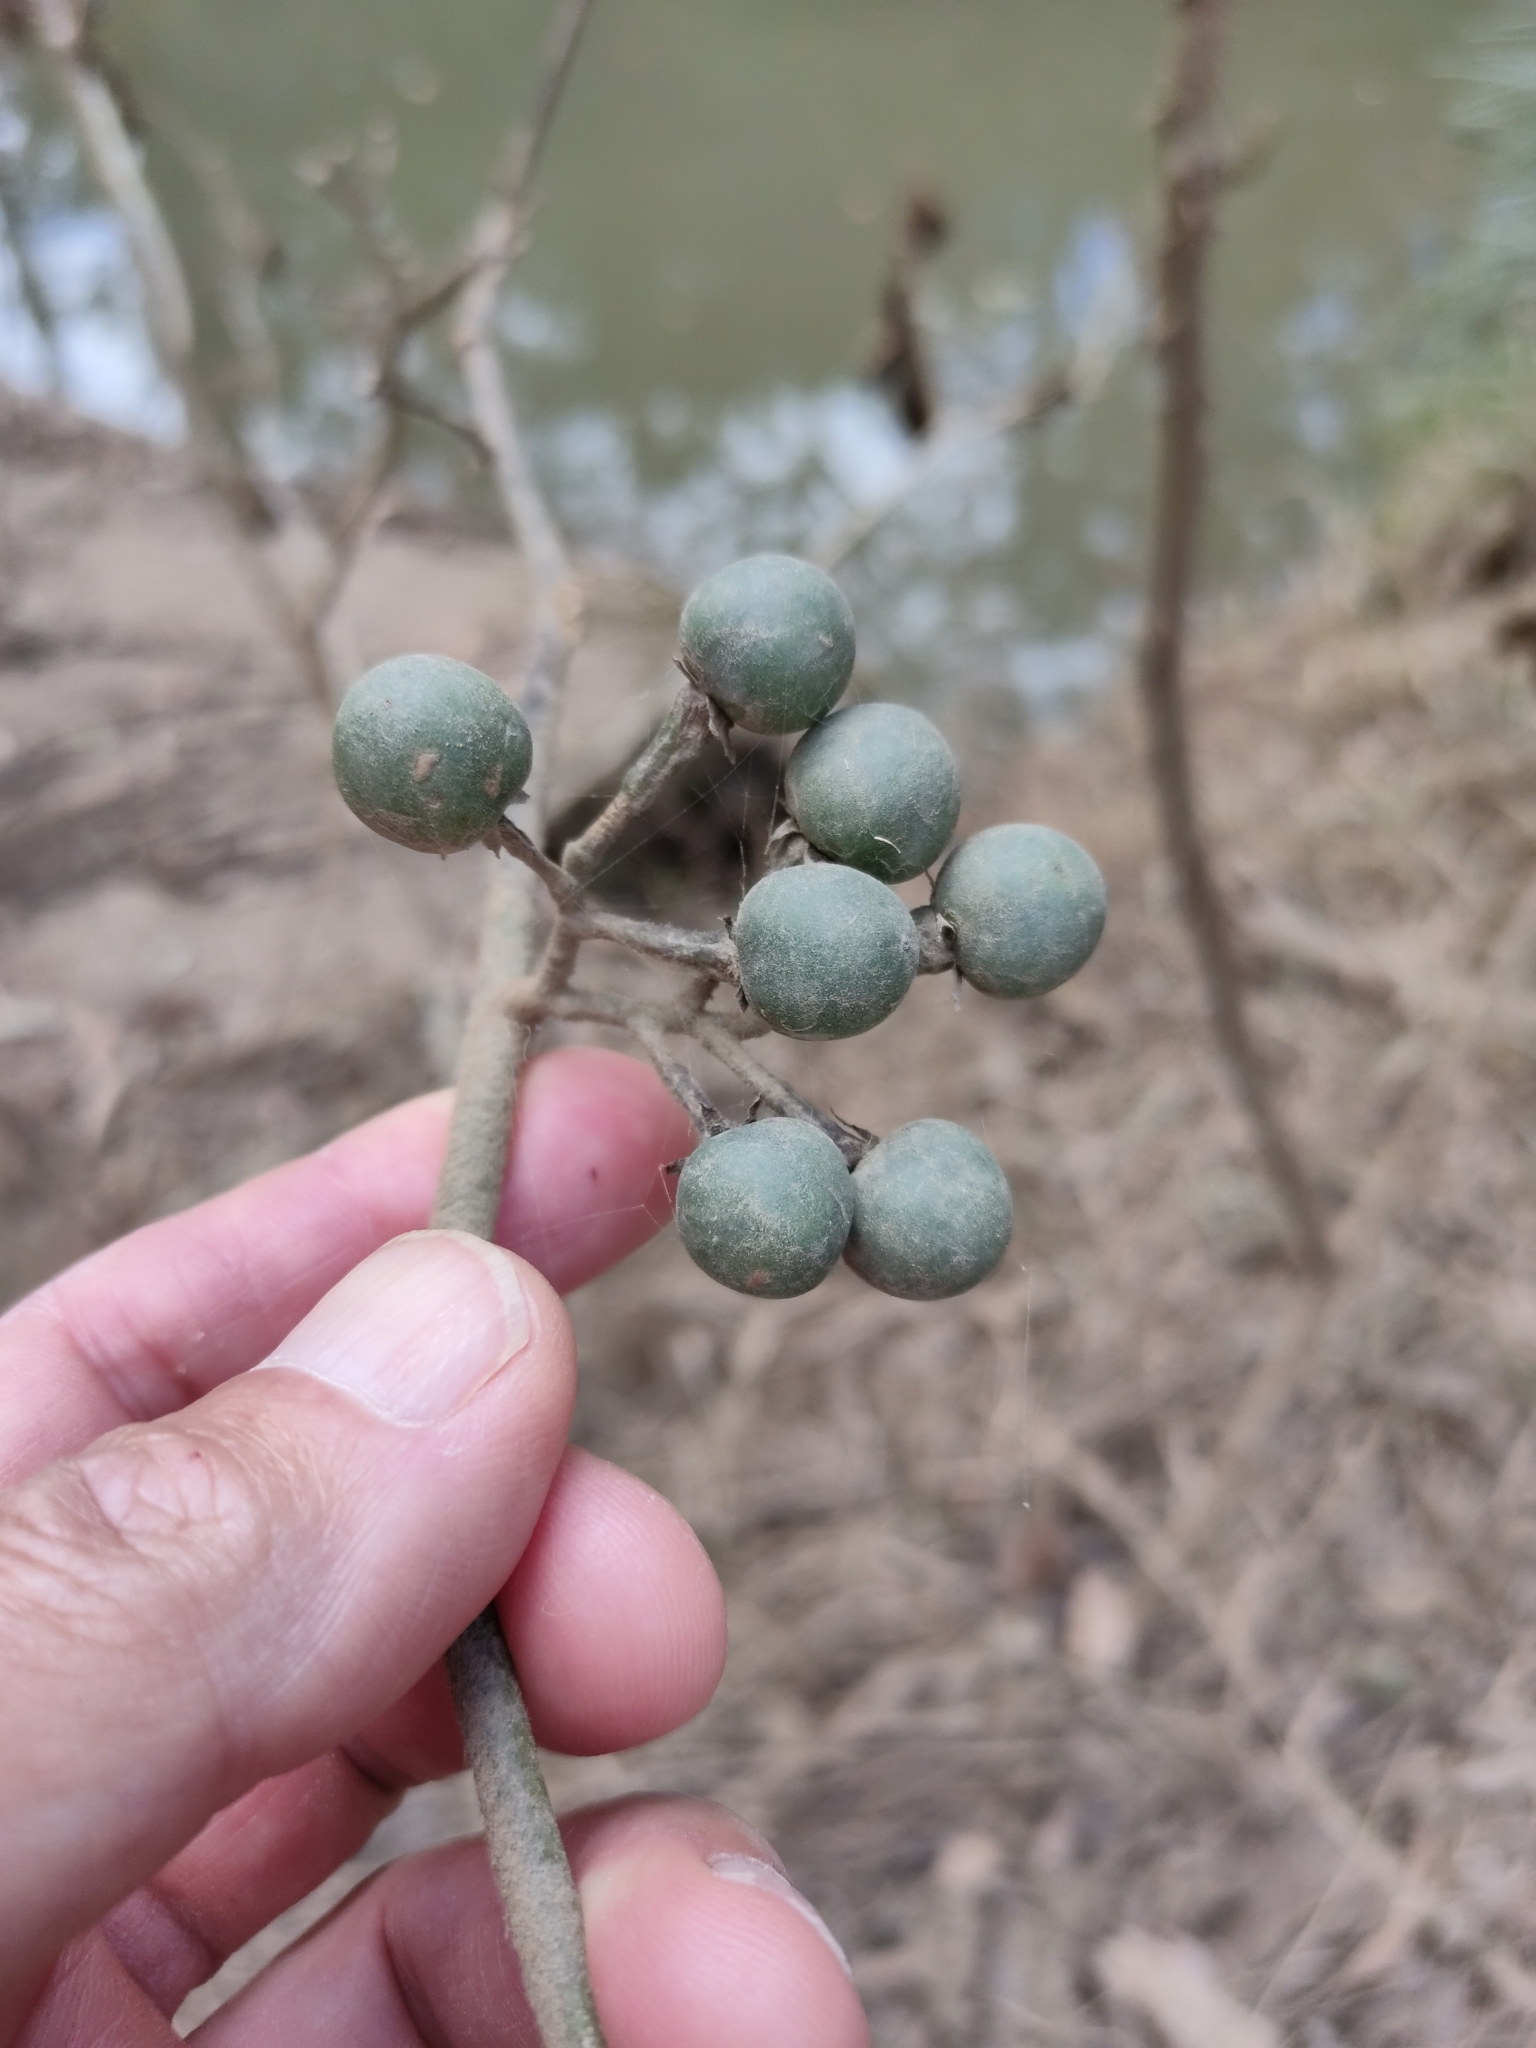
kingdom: Plantae
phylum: Tracheophyta
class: Magnoliopsida
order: Solanales
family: Solanaceae
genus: Solanum
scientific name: Solanum torvum
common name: Turkey berry
